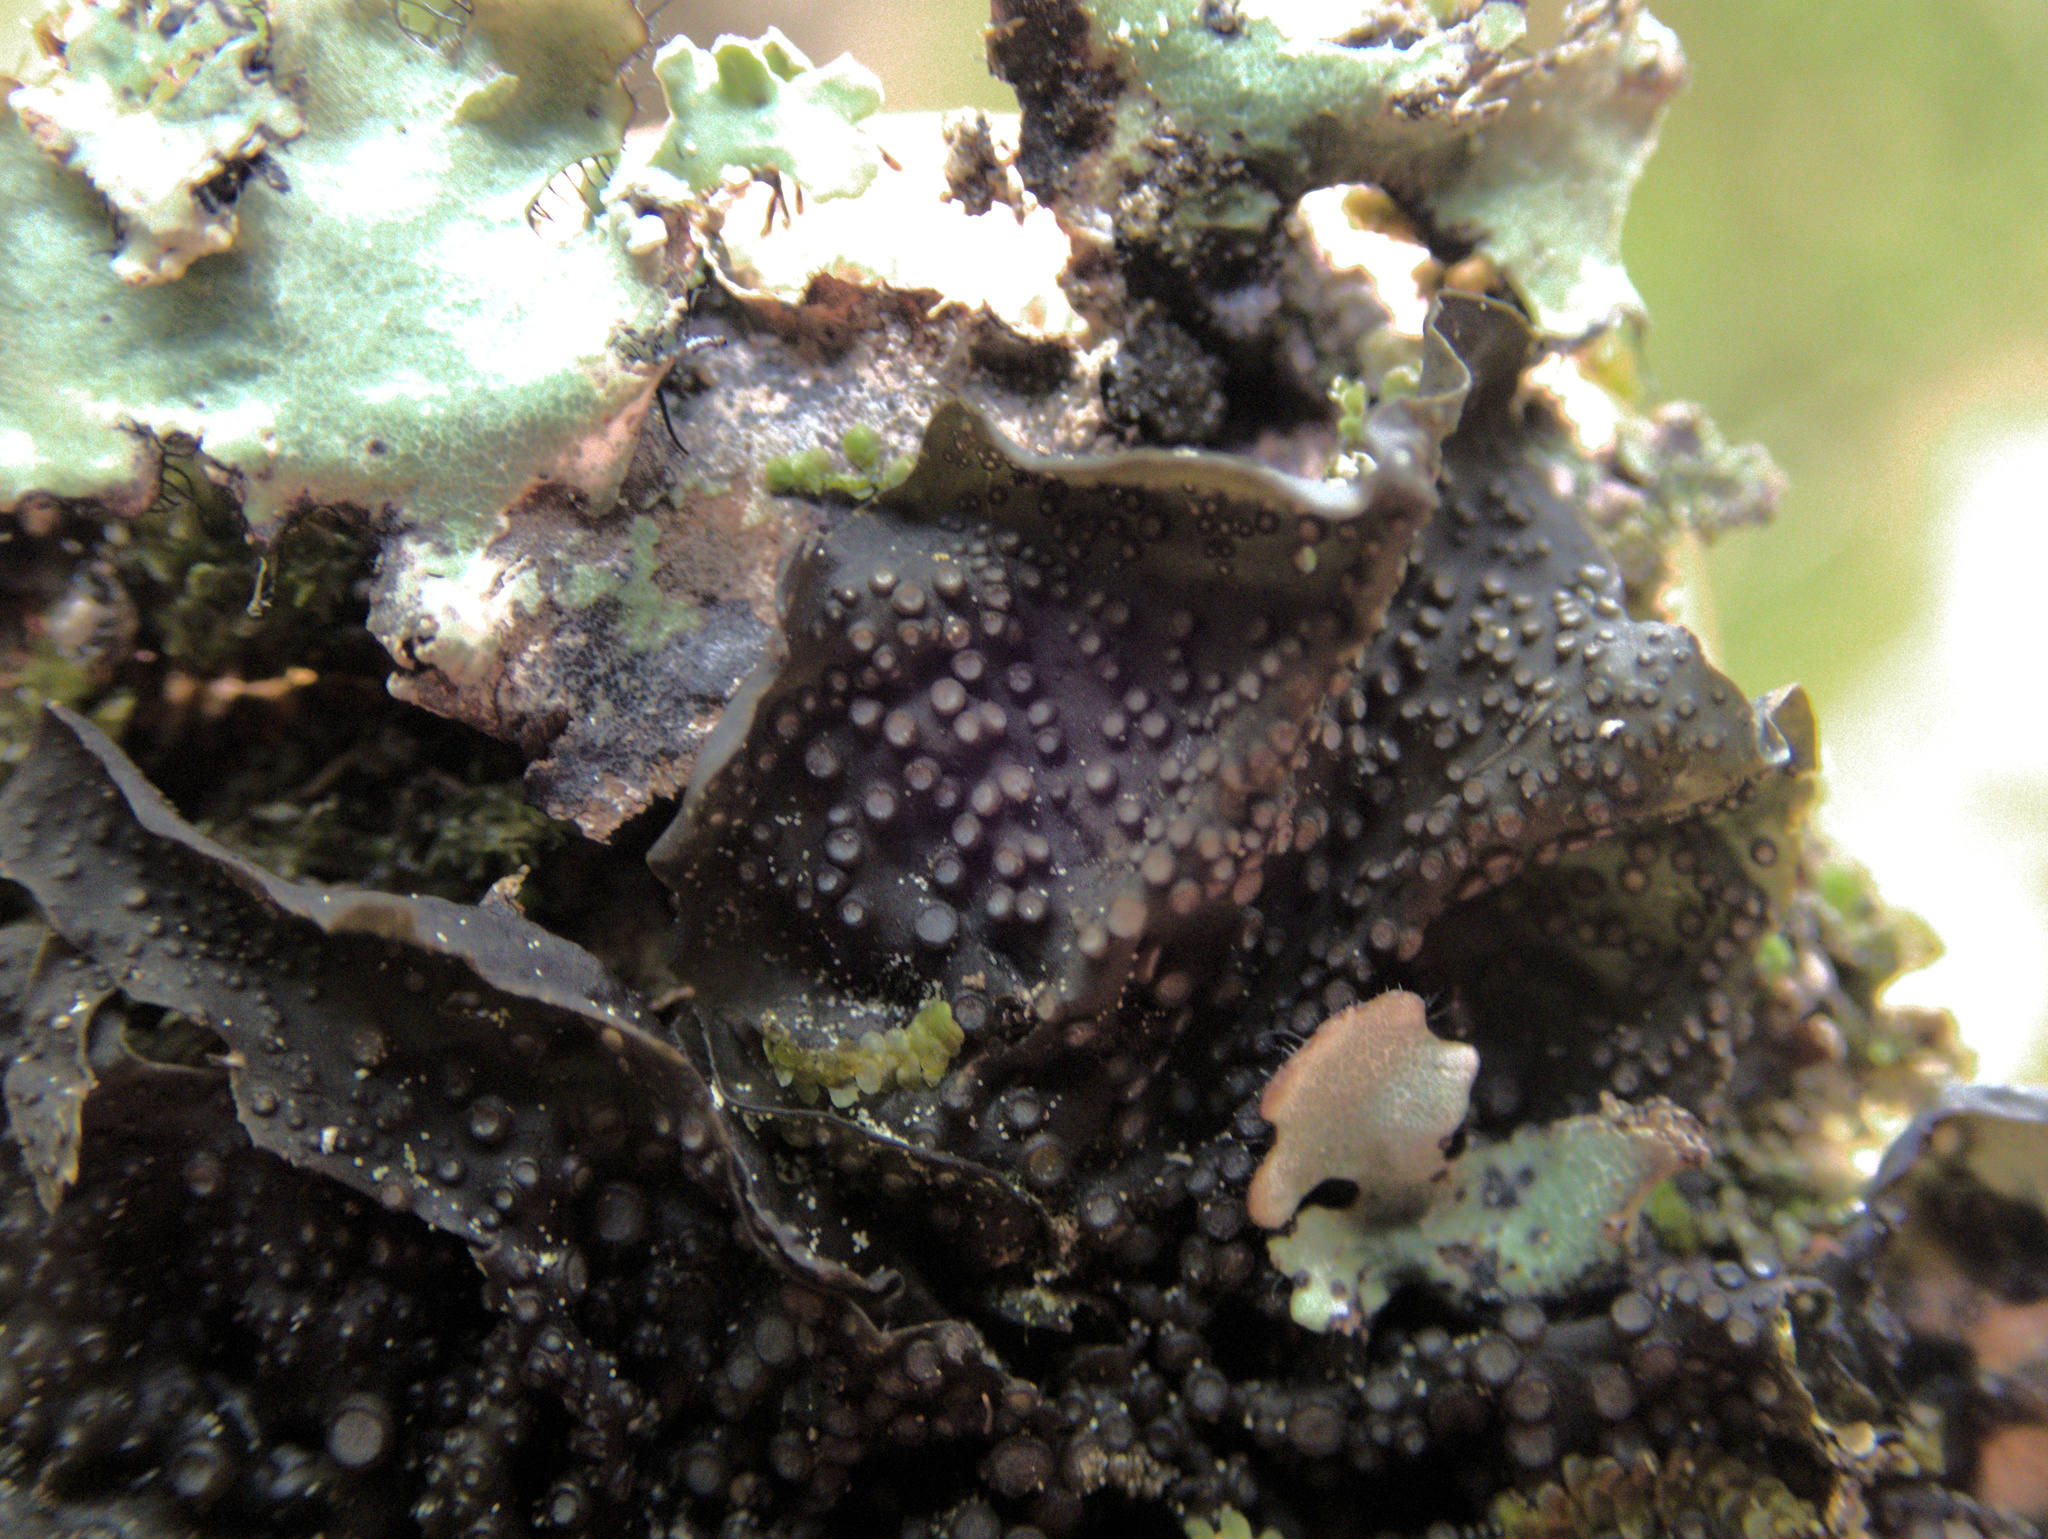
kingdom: Fungi
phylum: Ascomycota
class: Lecanoromycetes
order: Peltigerales
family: Collemataceae
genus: Collema
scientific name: Collema laeve
